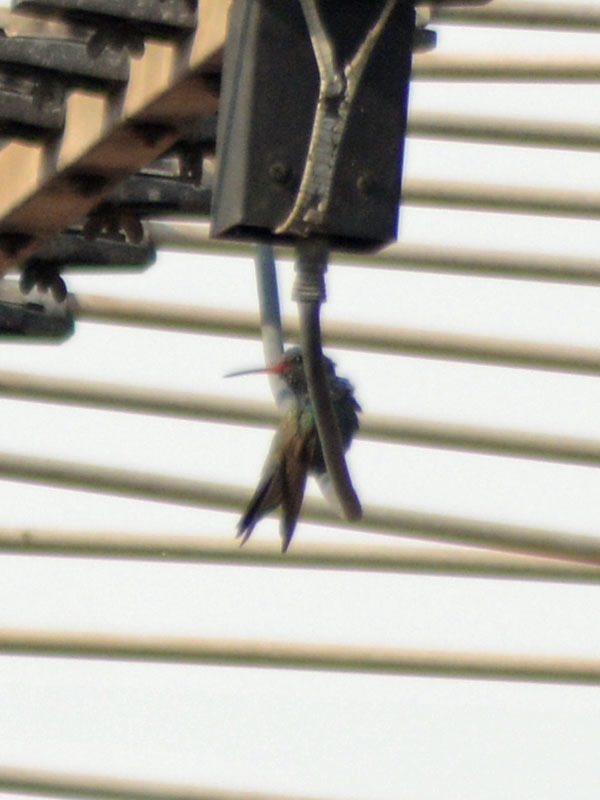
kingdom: Animalia
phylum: Chordata
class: Aves
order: Apodiformes
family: Trochilidae
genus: Cynanthus
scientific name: Cynanthus latirostris
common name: Broad-billed hummingbird
